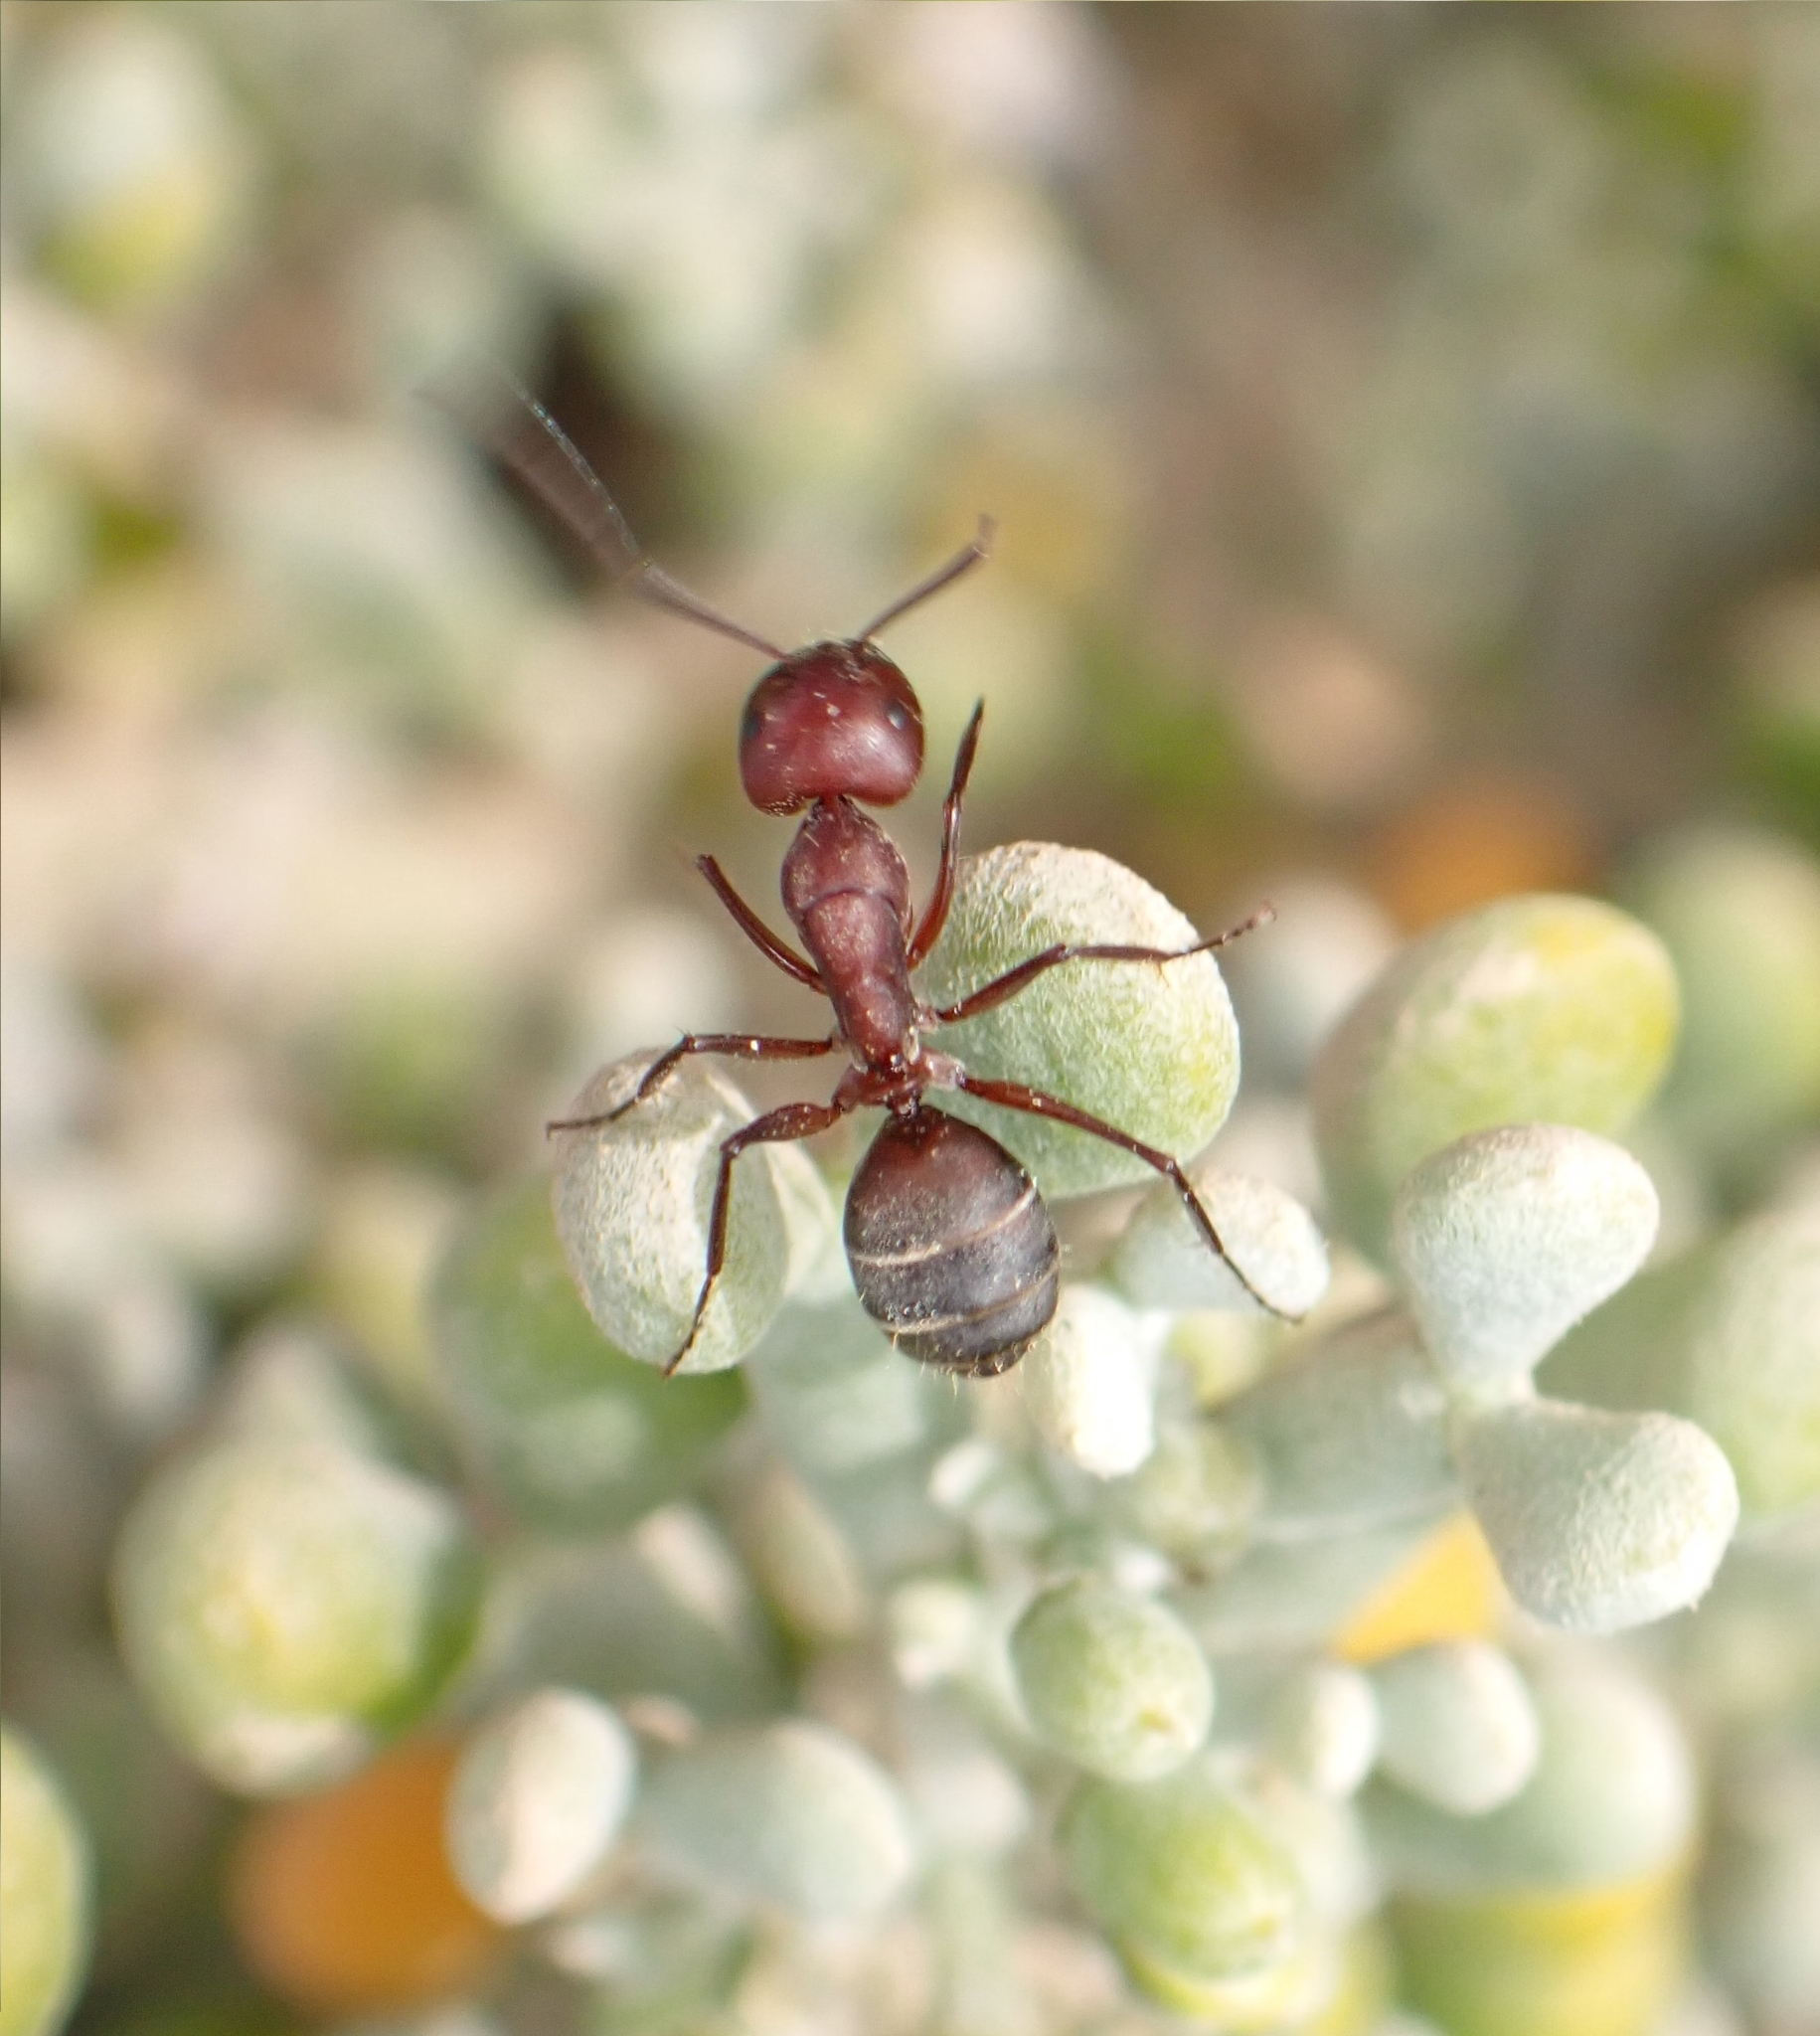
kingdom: Animalia
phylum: Arthropoda
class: Insecta
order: Hymenoptera
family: Formicidae
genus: Camponotus
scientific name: Camponotus feai
